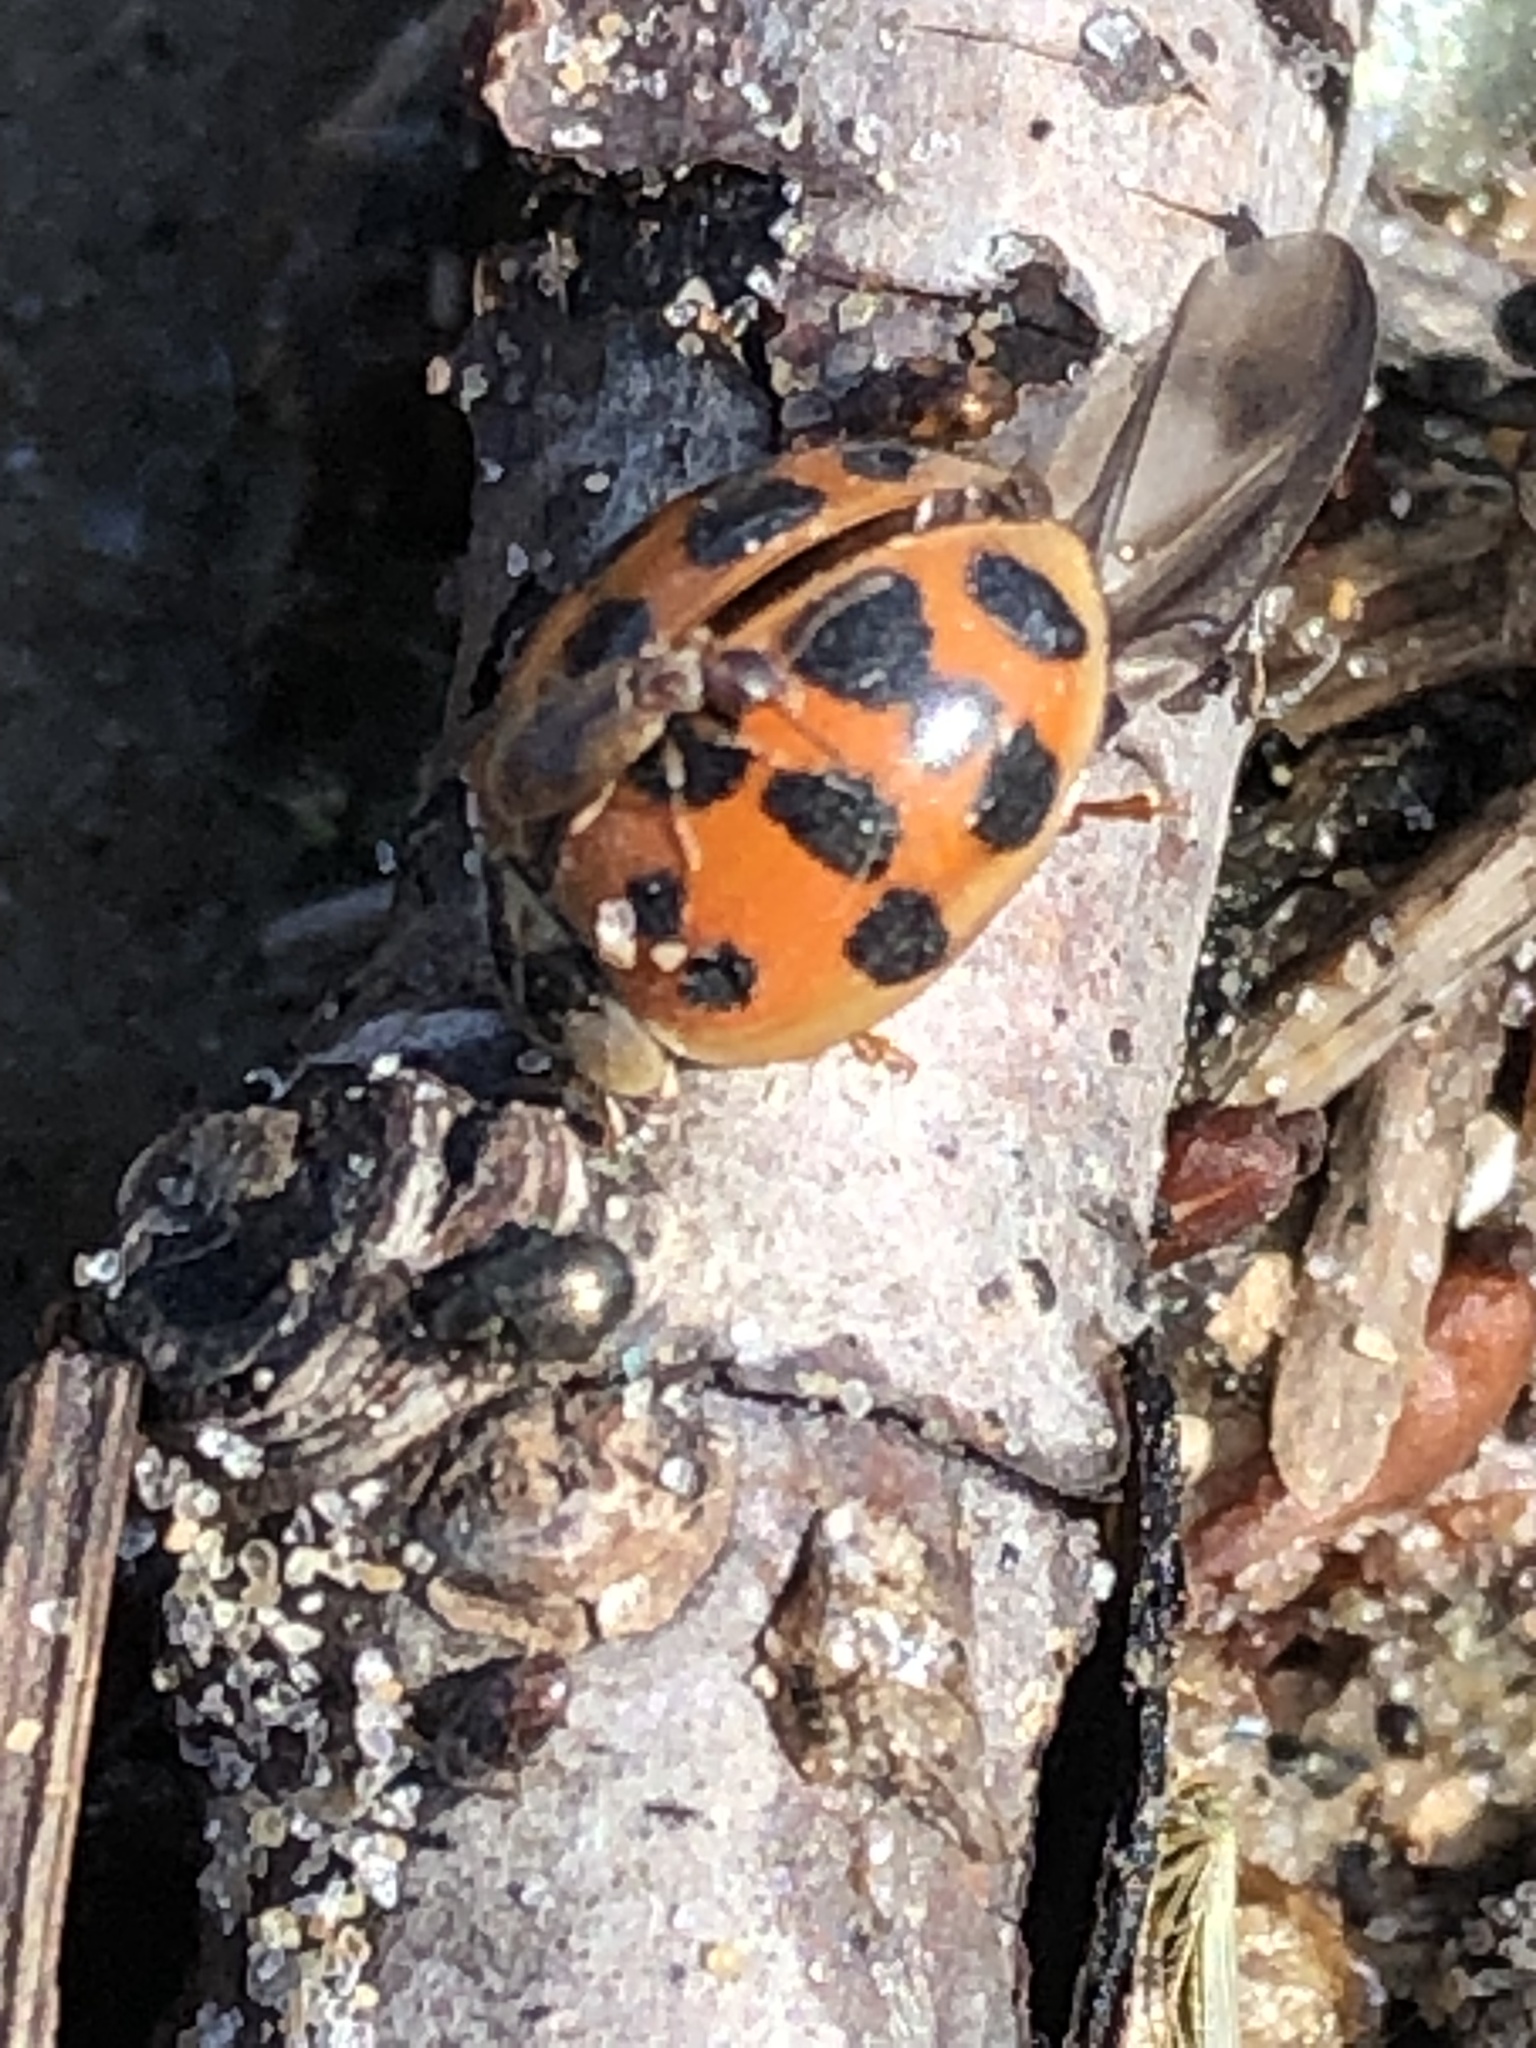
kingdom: Animalia
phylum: Arthropoda
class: Insecta
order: Coleoptera
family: Coccinellidae
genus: Harmonia
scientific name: Harmonia axyridis
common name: Harlequin ladybird
